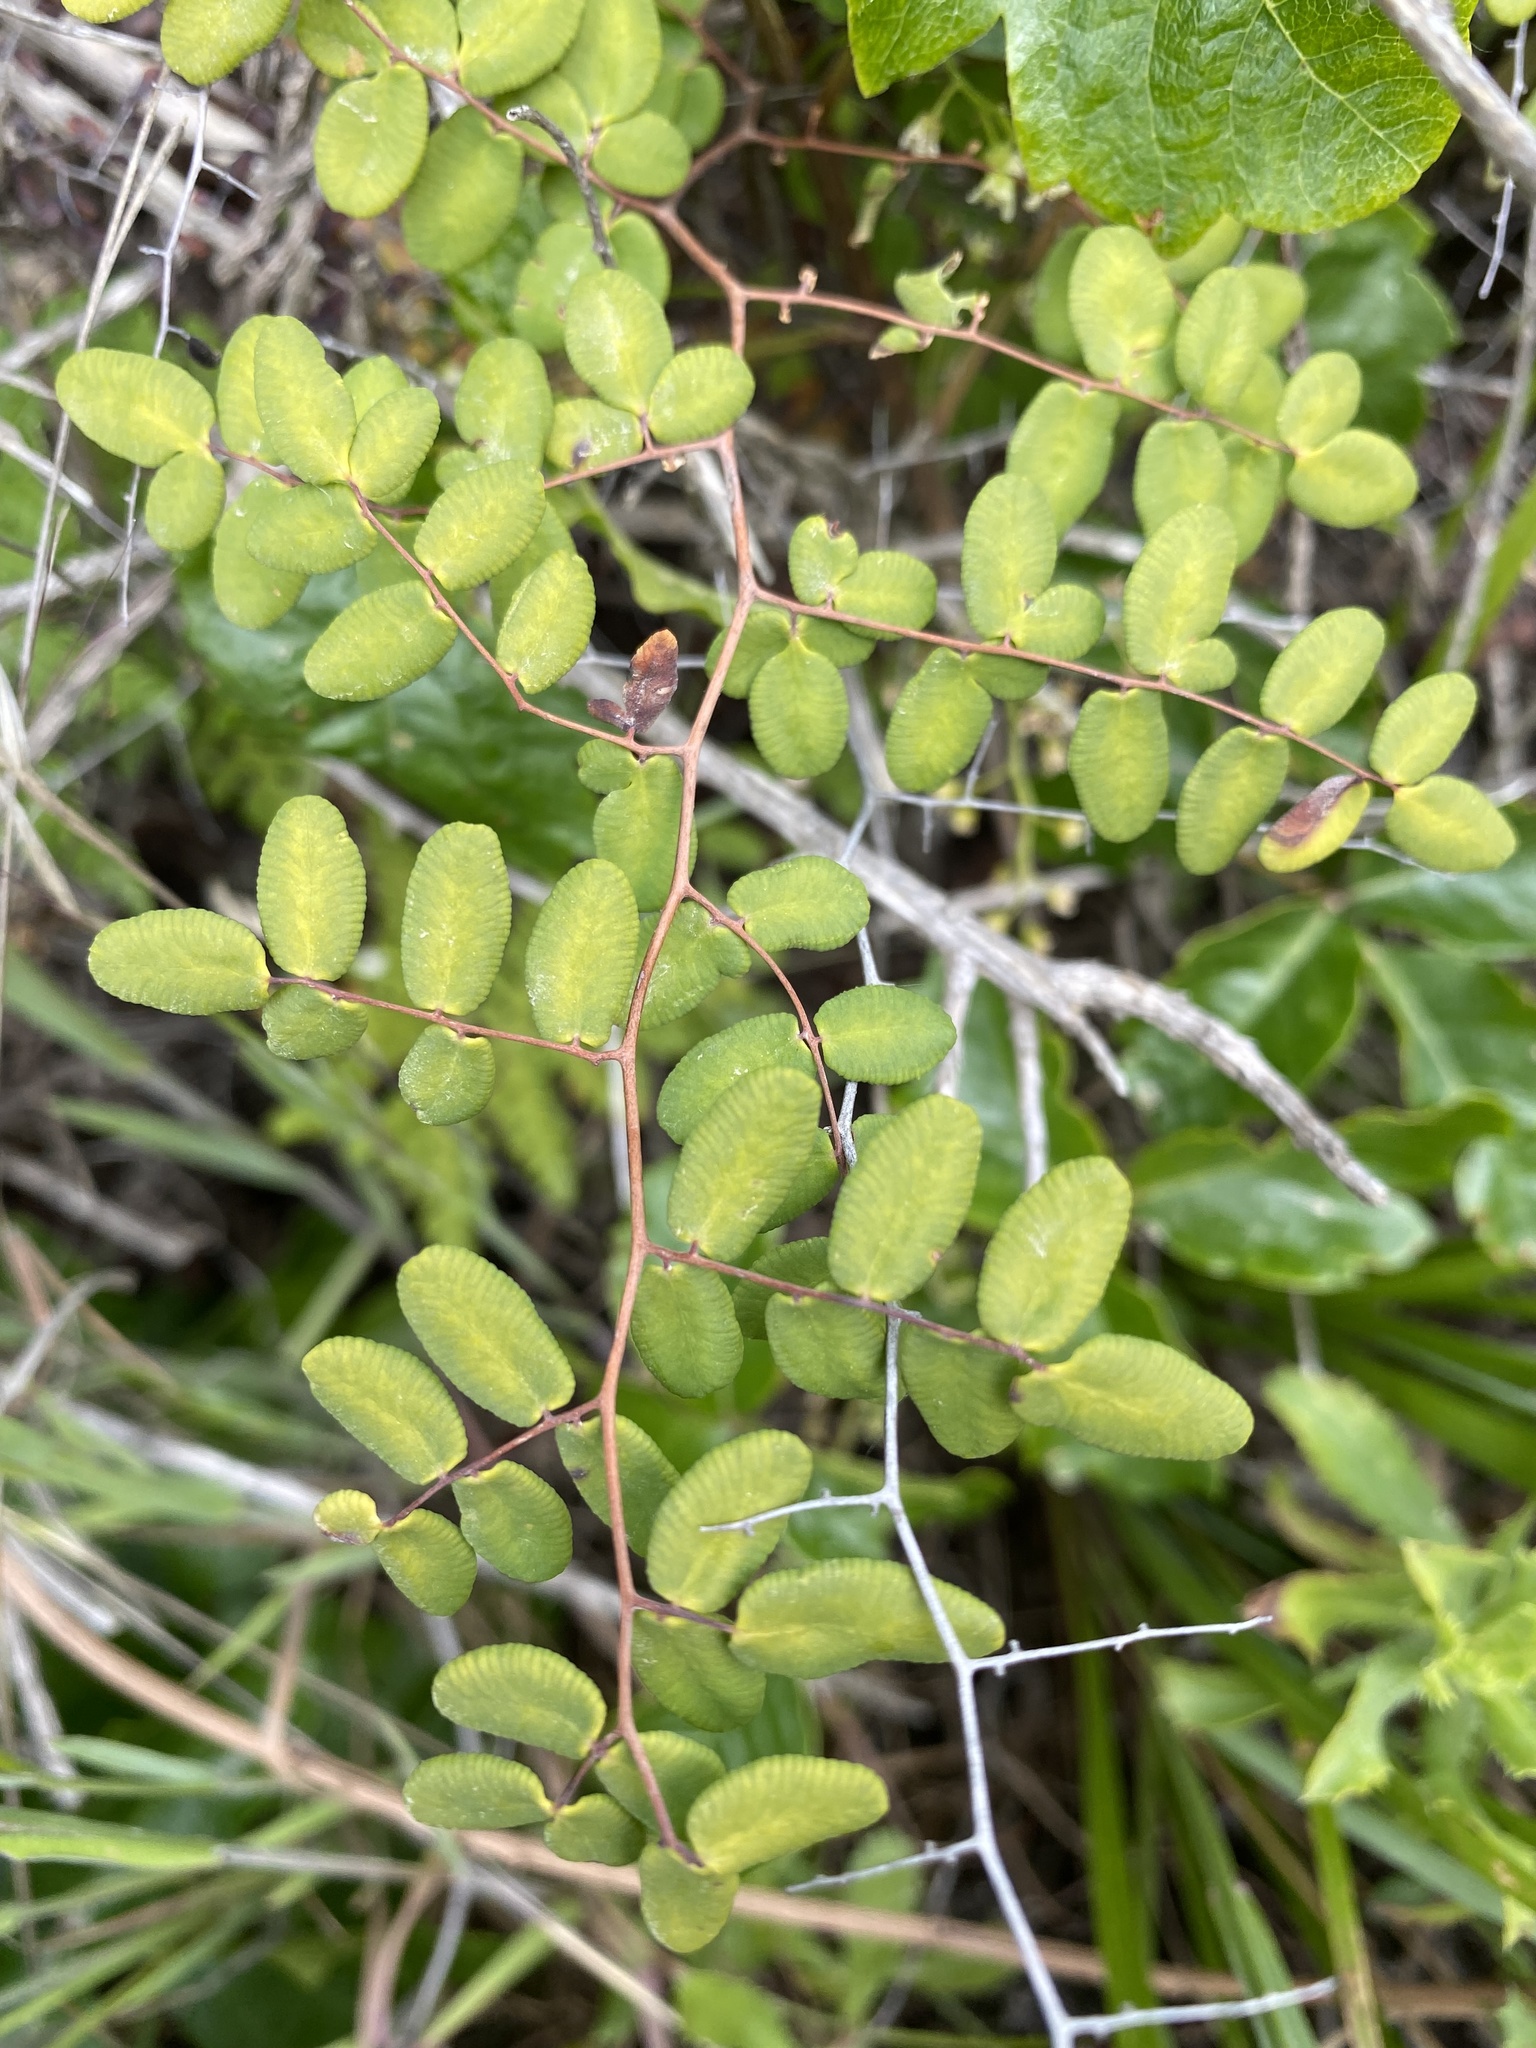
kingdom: Plantae
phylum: Tracheophyta
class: Polypodiopsida
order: Polypodiales
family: Pteridaceae
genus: Pellaea
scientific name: Pellaea andromedifolia
